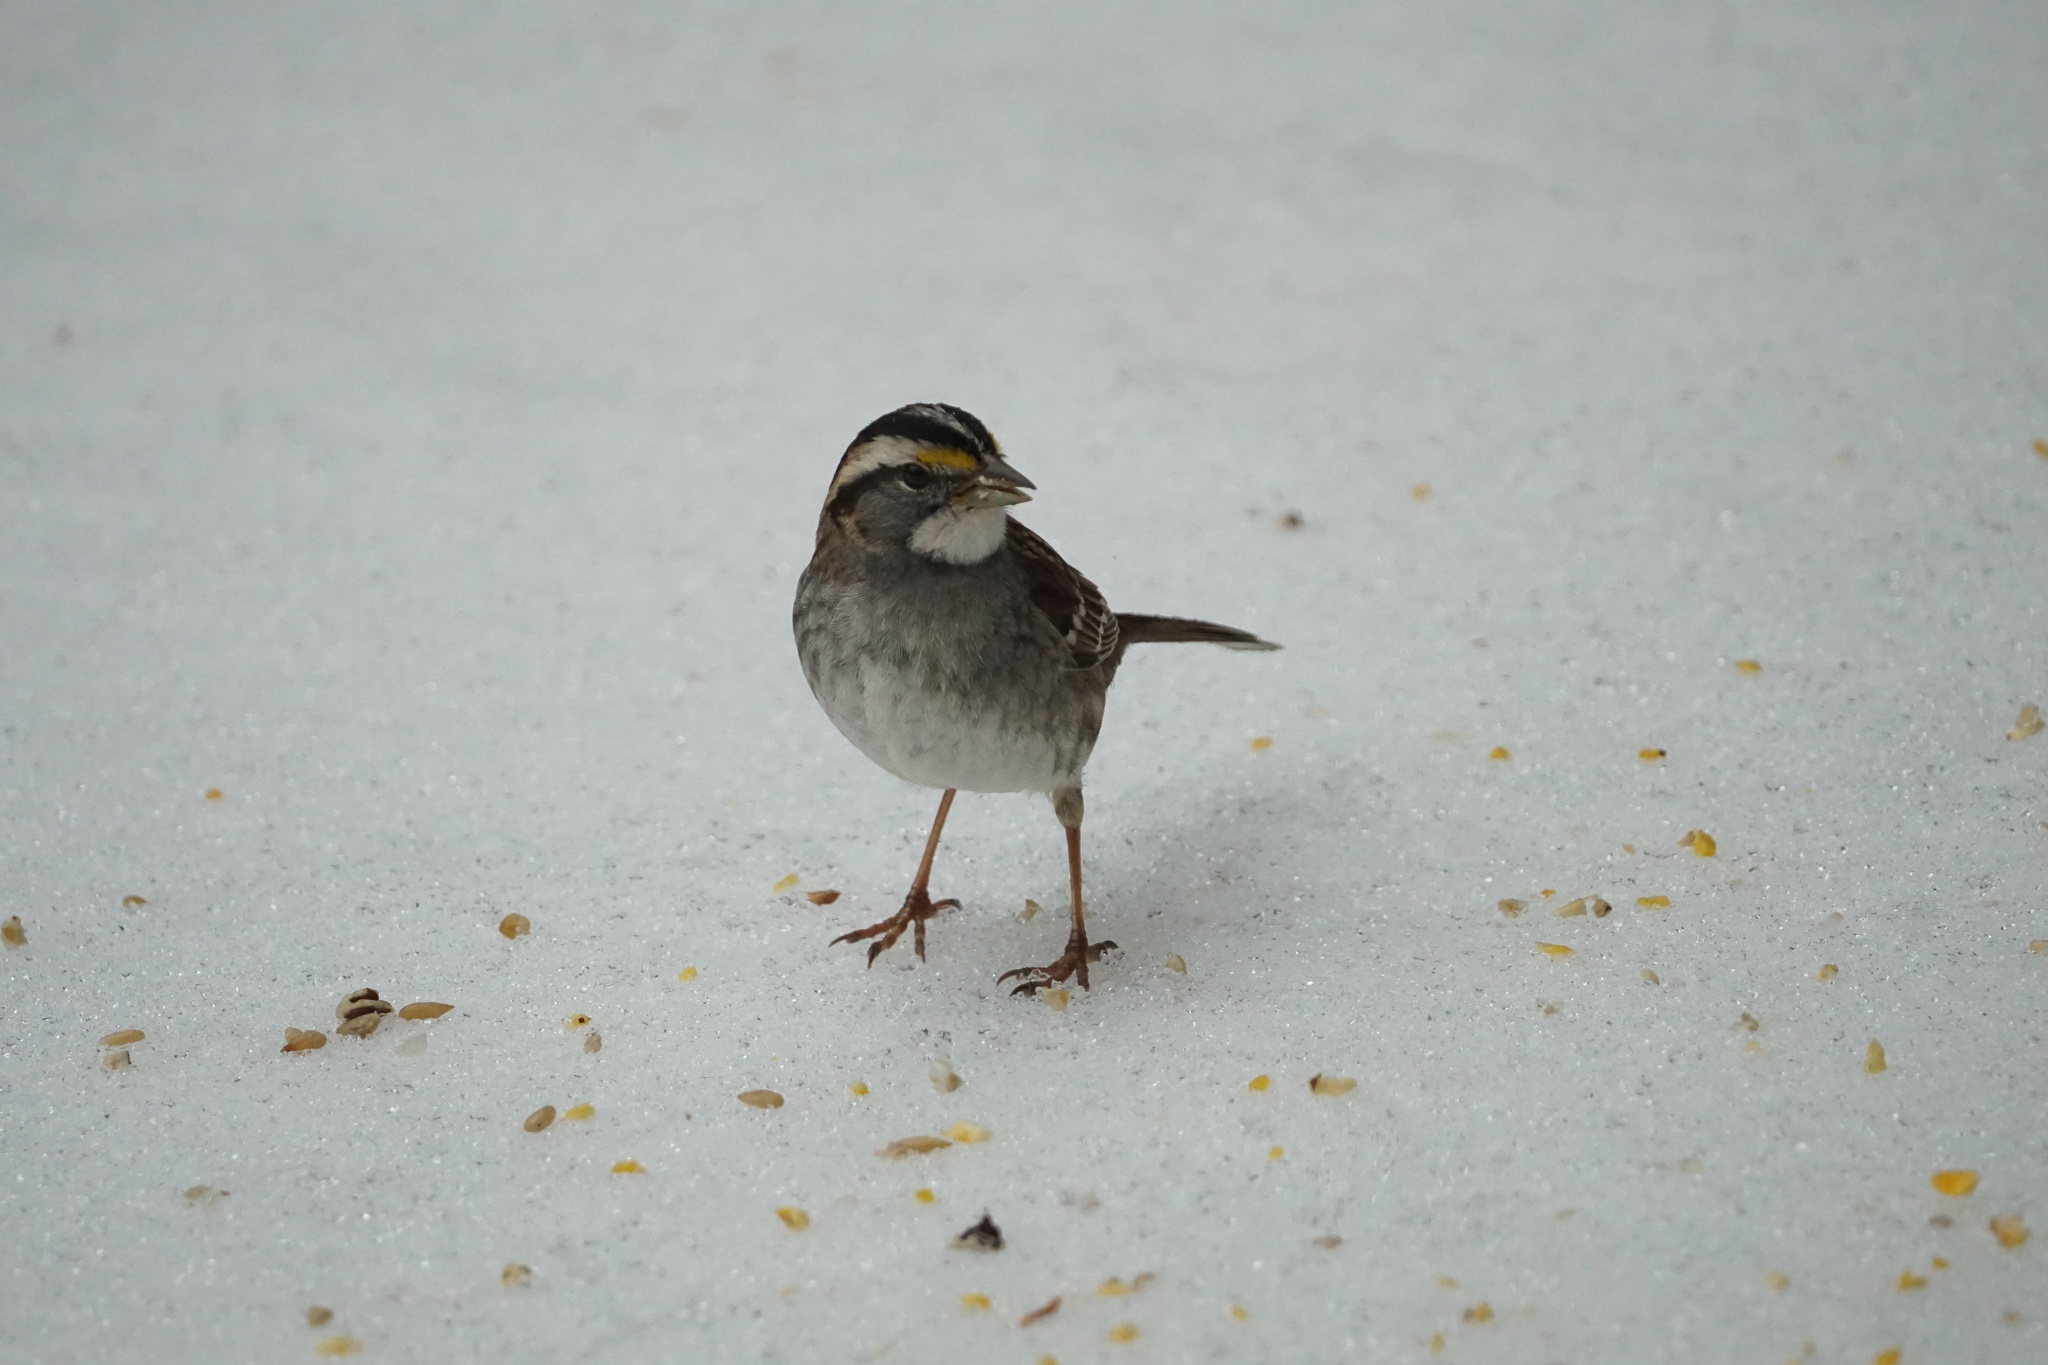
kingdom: Animalia
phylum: Chordata
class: Aves
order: Passeriformes
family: Passerellidae
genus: Zonotrichia
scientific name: Zonotrichia albicollis
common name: White-throated sparrow
